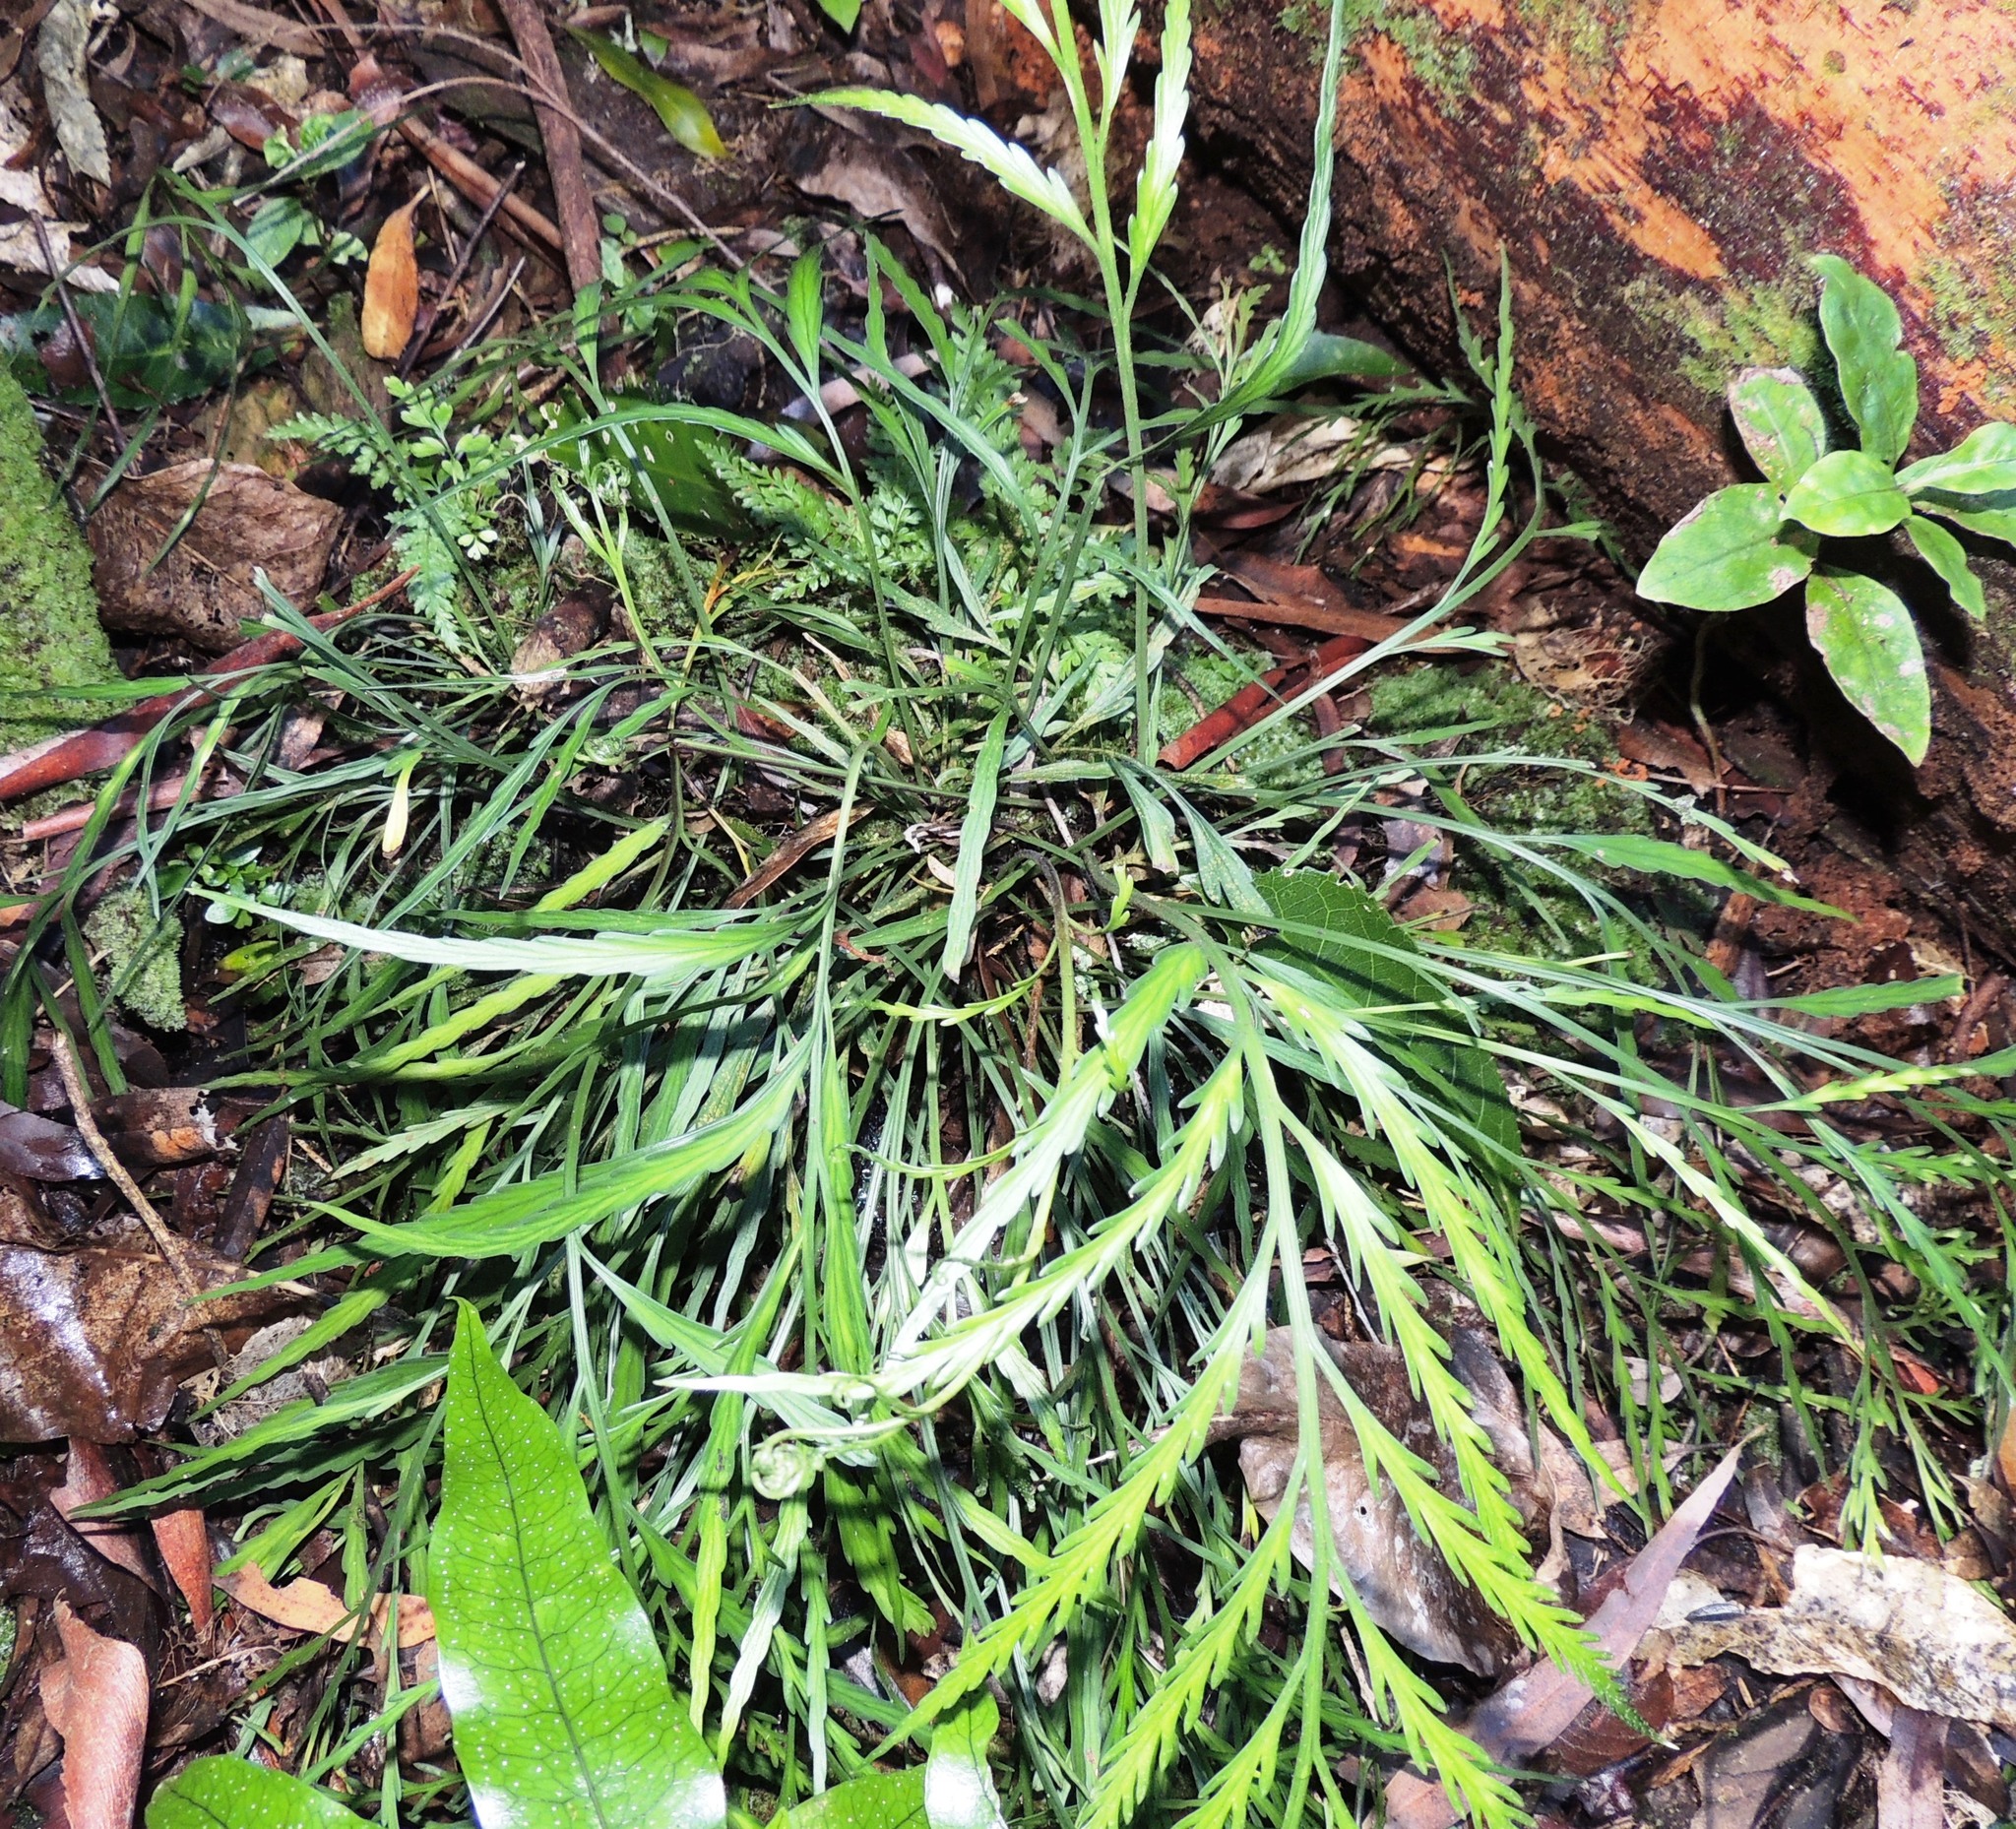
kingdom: Plantae
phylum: Tracheophyta
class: Polypodiopsida
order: Polypodiales
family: Aspleniaceae
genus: Asplenium
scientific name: Asplenium flaccidum
